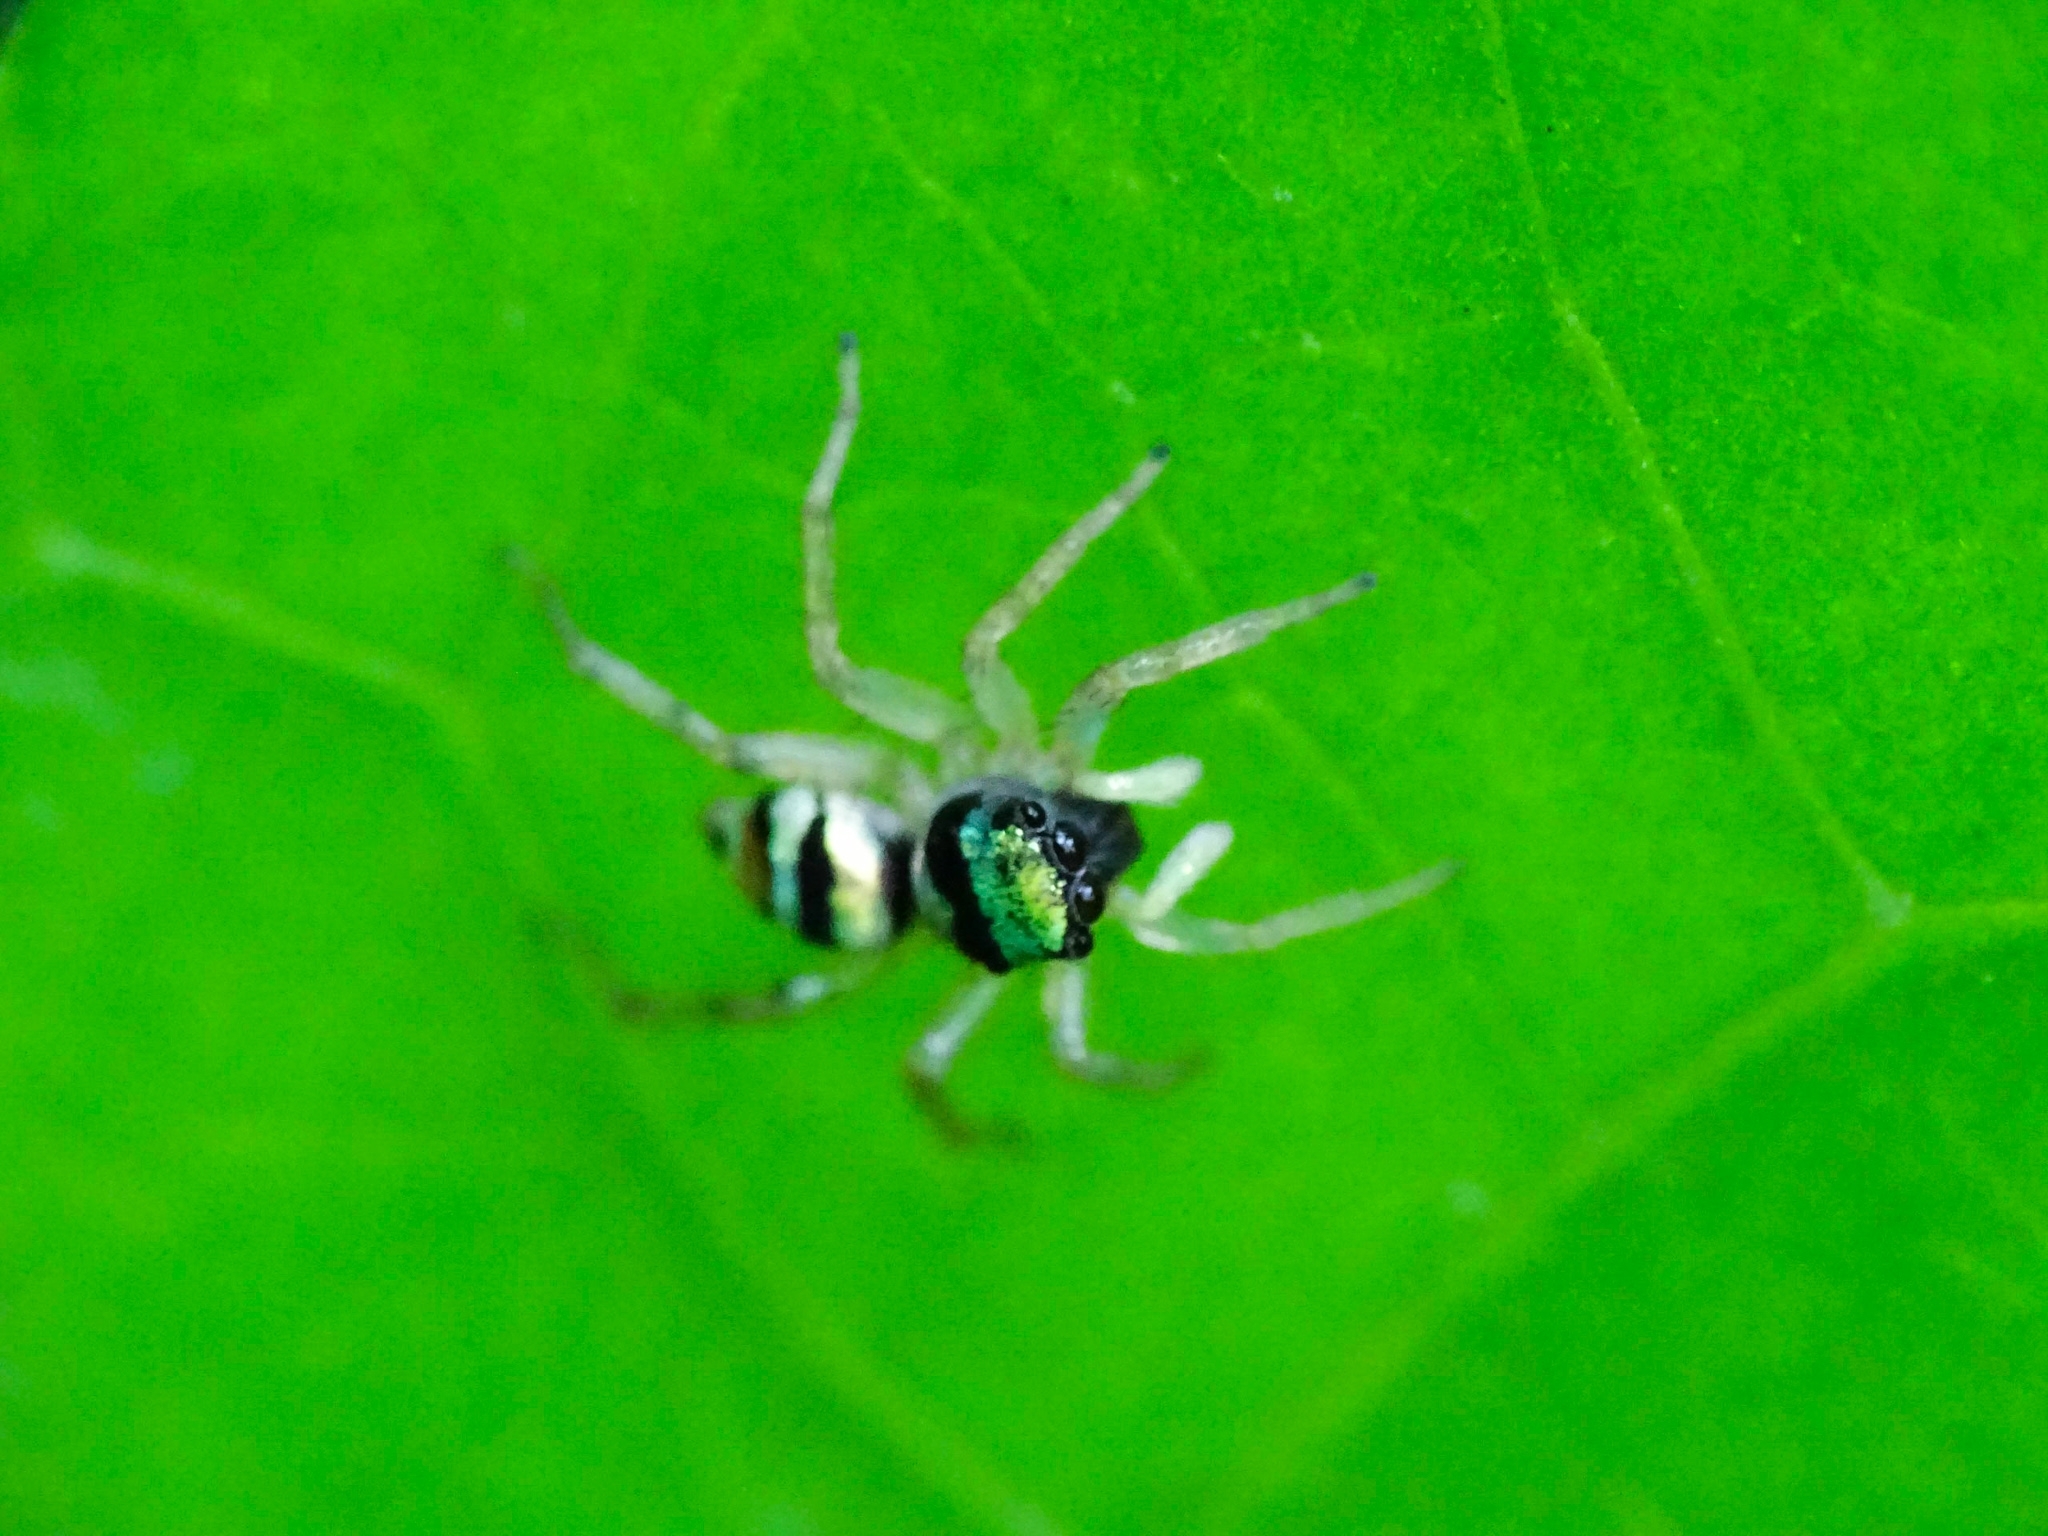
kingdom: Animalia
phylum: Arthropoda
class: Arachnida
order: Araneae
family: Salticidae
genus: Phintella
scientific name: Phintella vittata
